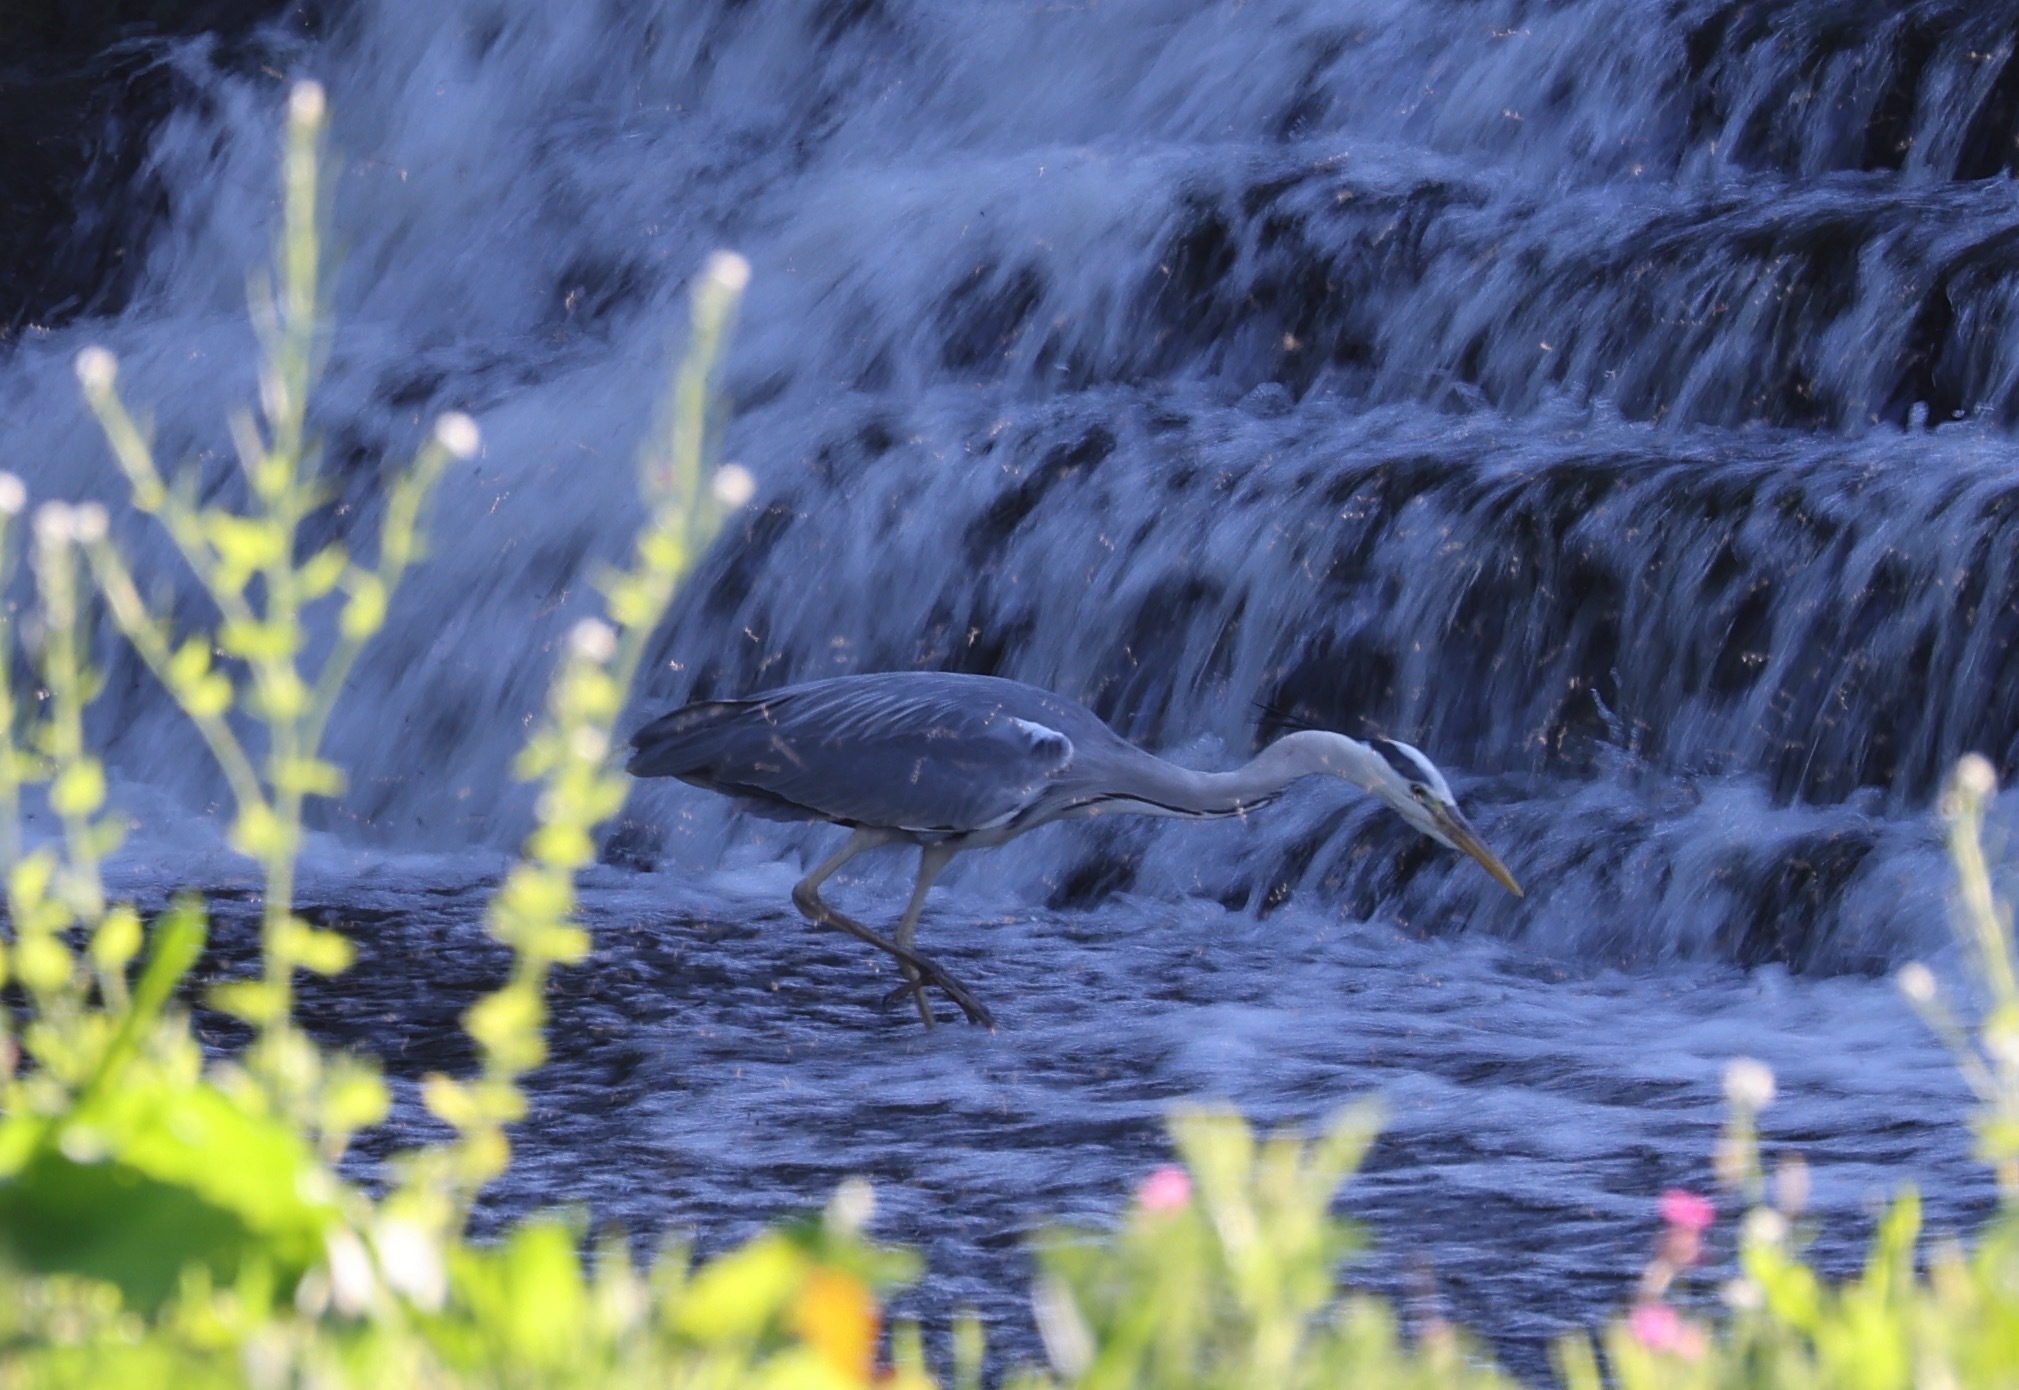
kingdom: Animalia
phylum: Chordata
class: Aves
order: Pelecaniformes
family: Ardeidae
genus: Ardea
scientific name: Ardea cinerea
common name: Grey heron
